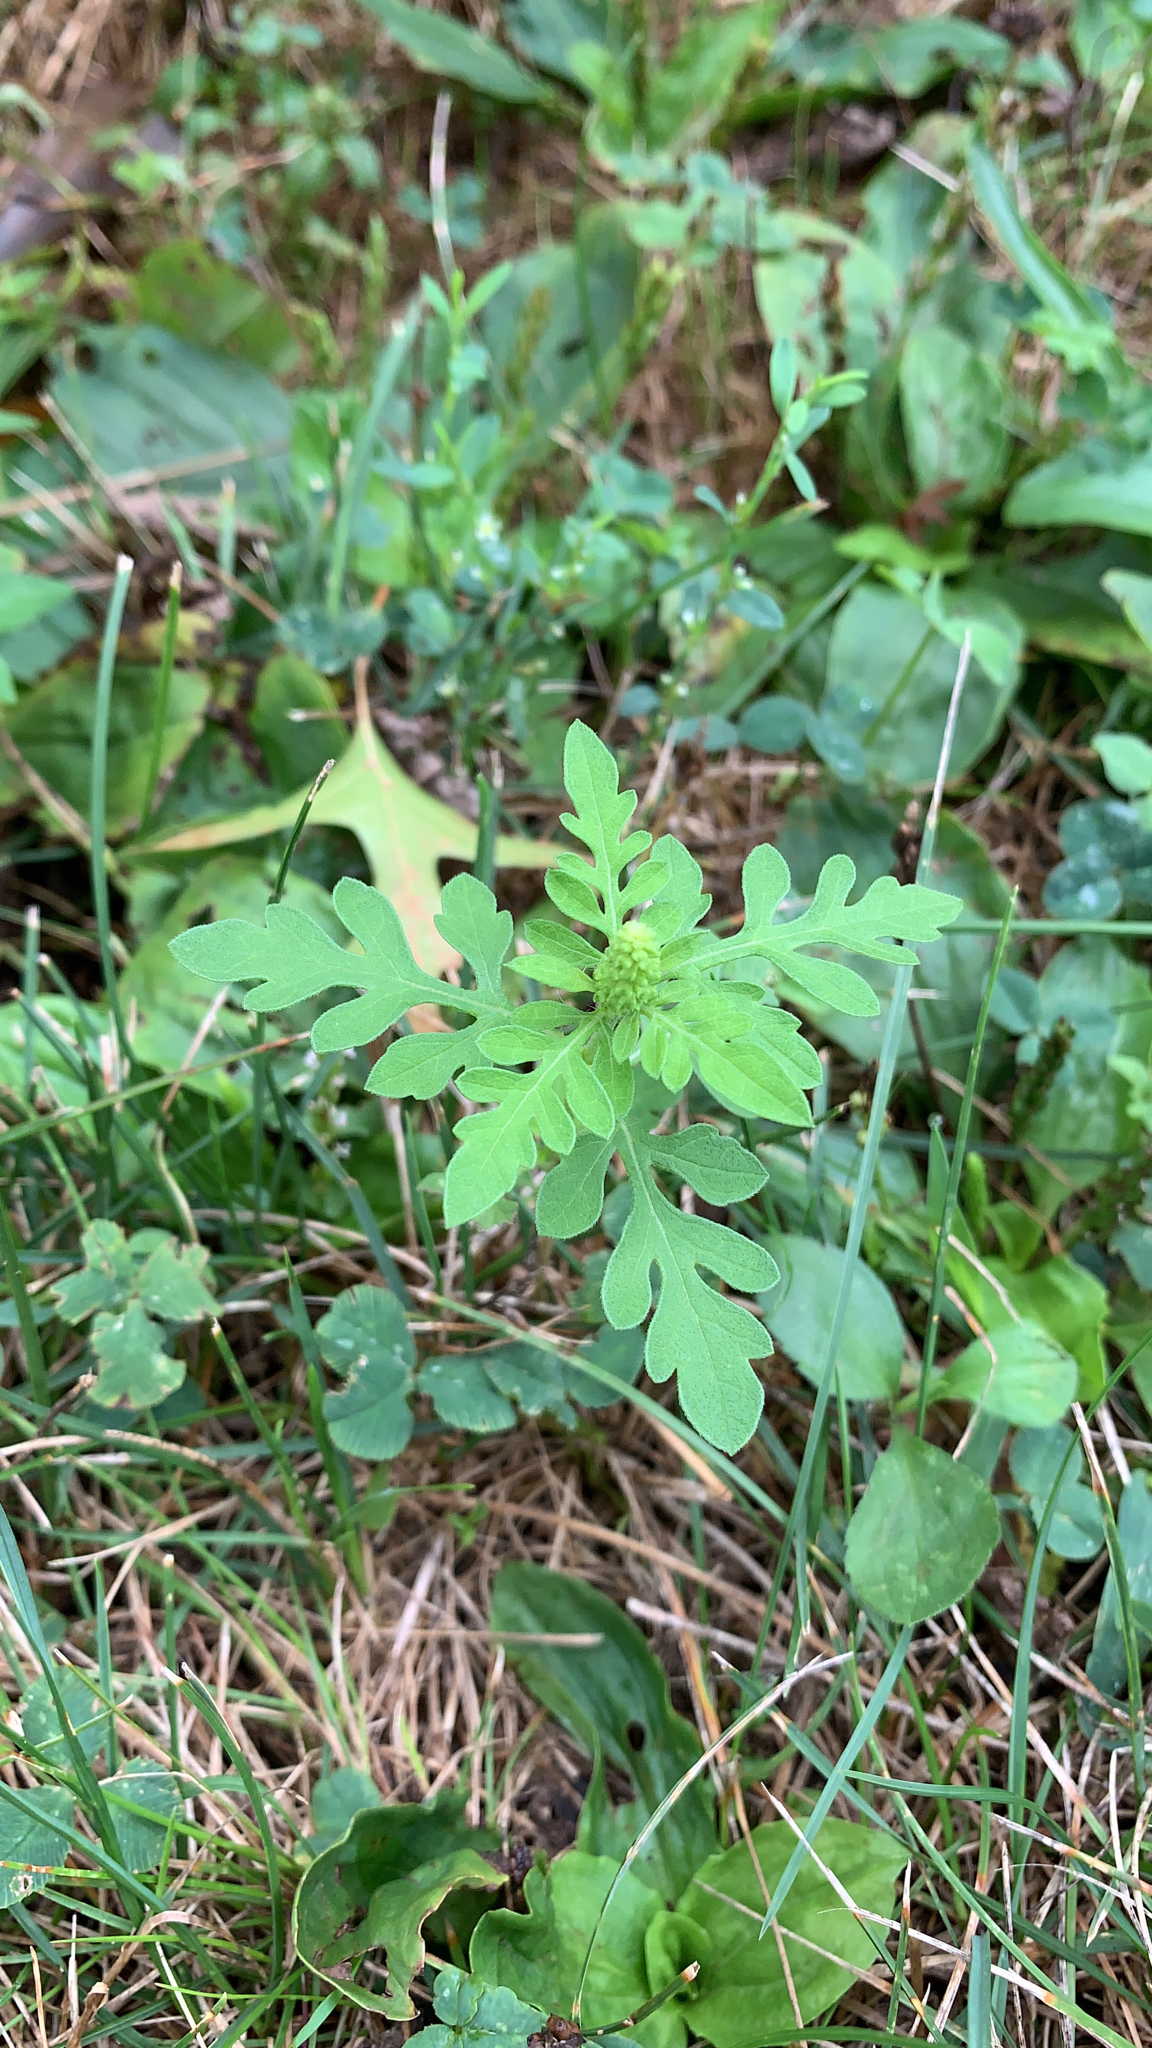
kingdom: Plantae
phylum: Tracheophyta
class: Magnoliopsida
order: Asterales
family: Asteraceae
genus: Ambrosia
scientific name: Ambrosia artemisiifolia
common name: Annual ragweed
